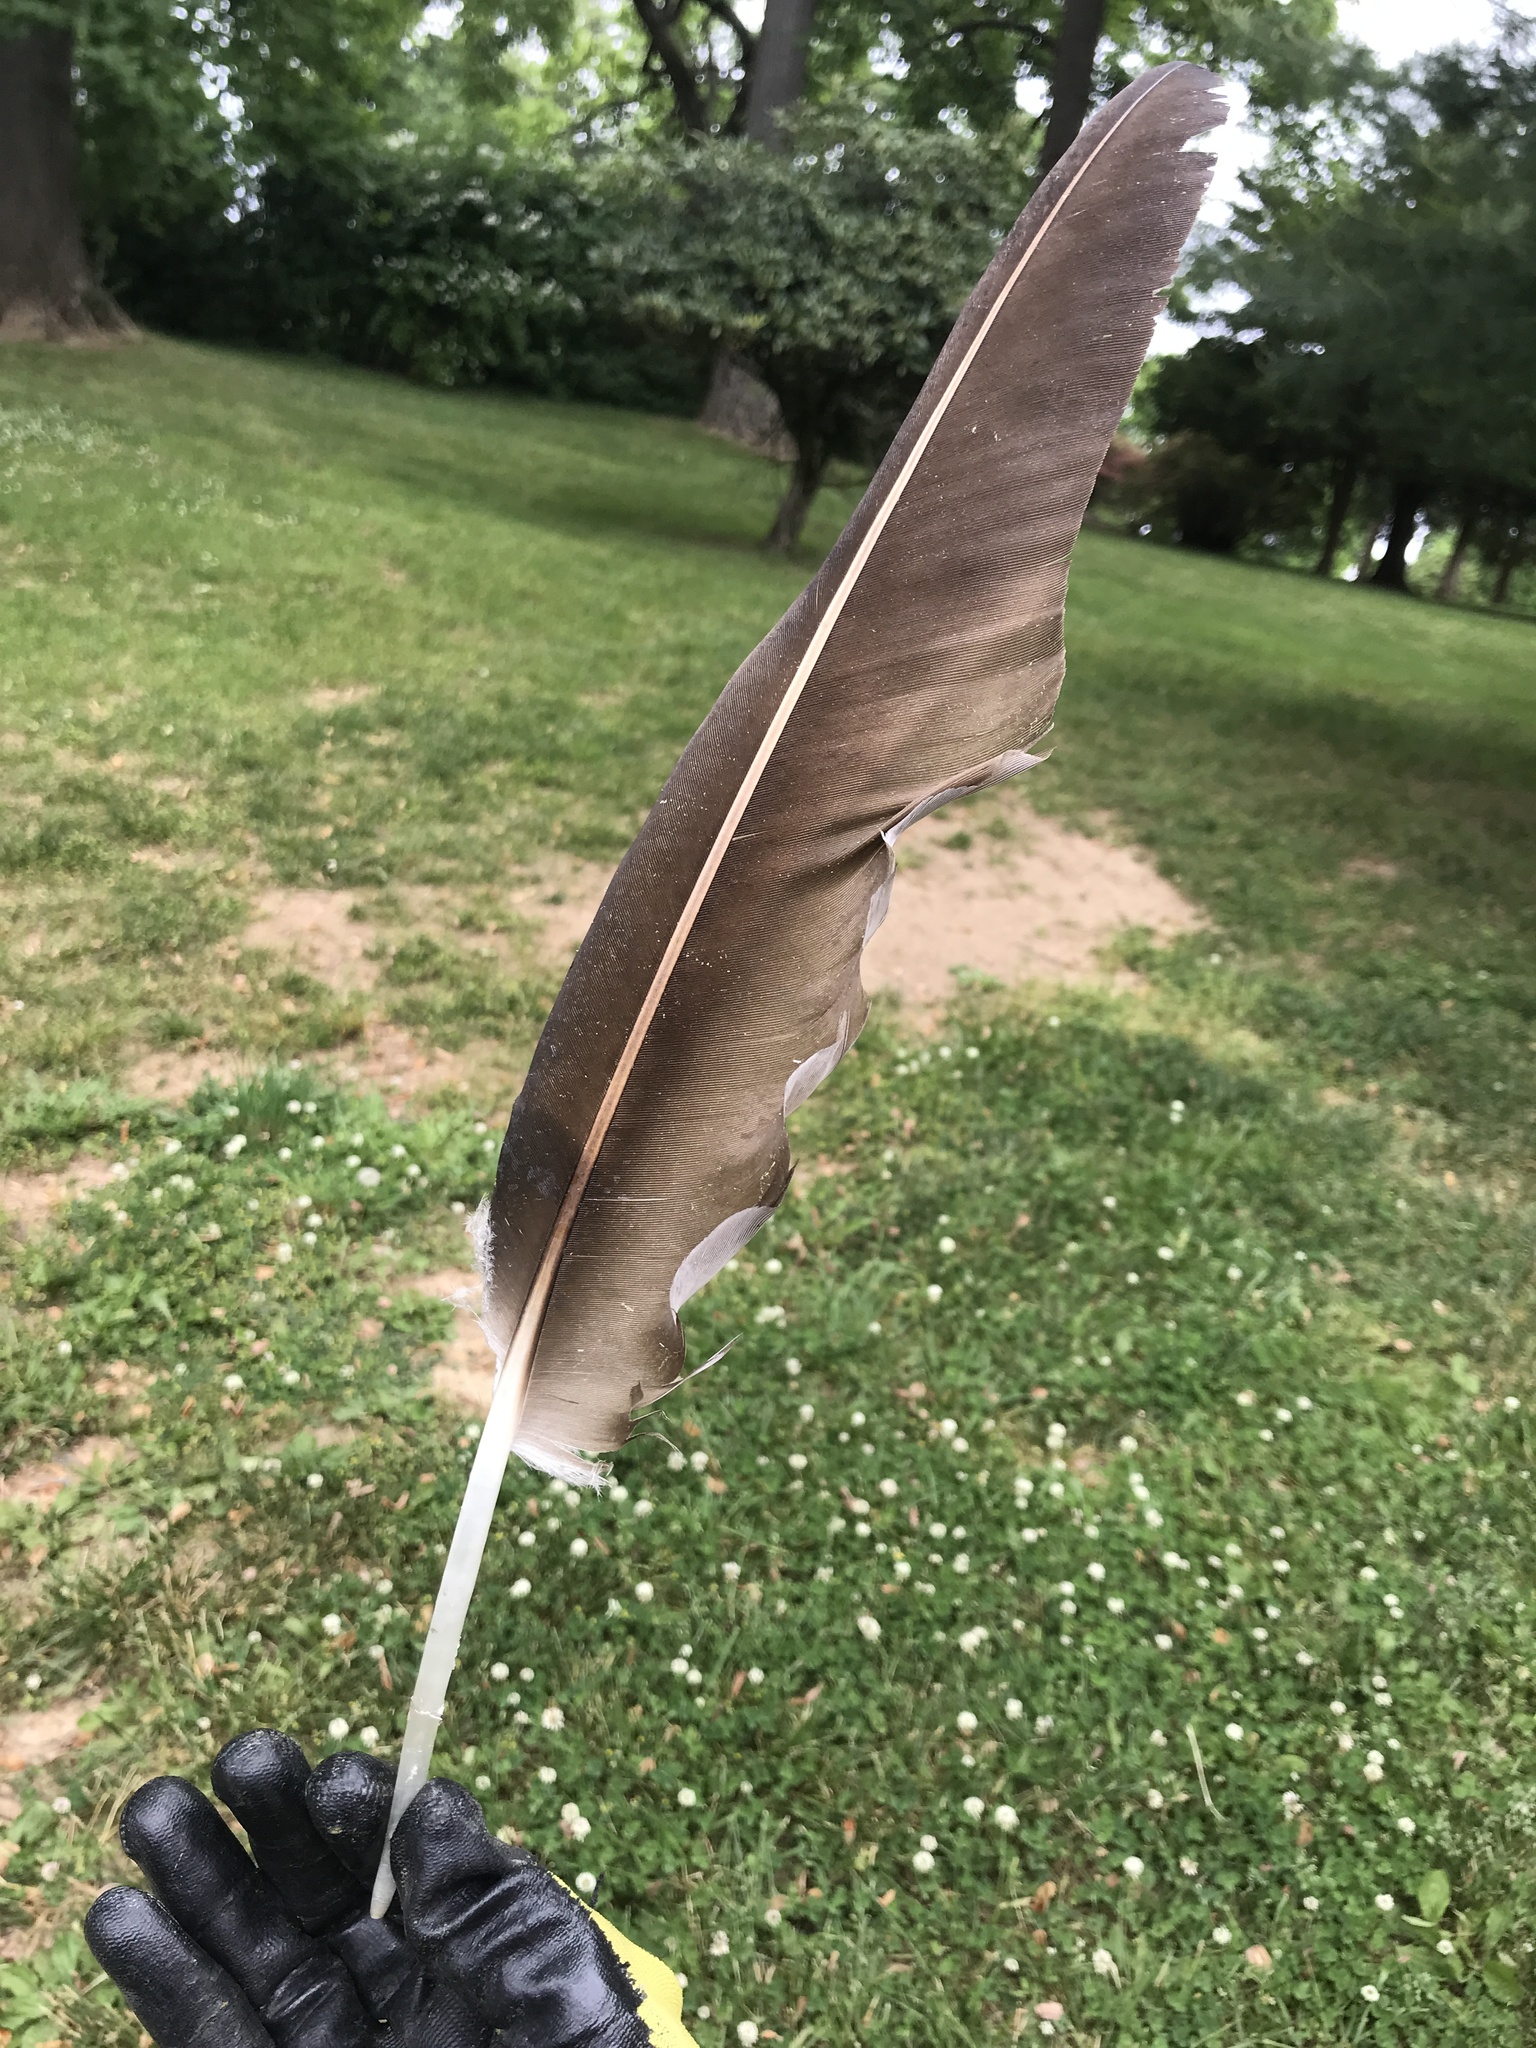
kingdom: Animalia
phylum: Chordata
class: Aves
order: Accipitriformes
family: Cathartidae
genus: Cathartes
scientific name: Cathartes aura
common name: Turkey vulture
